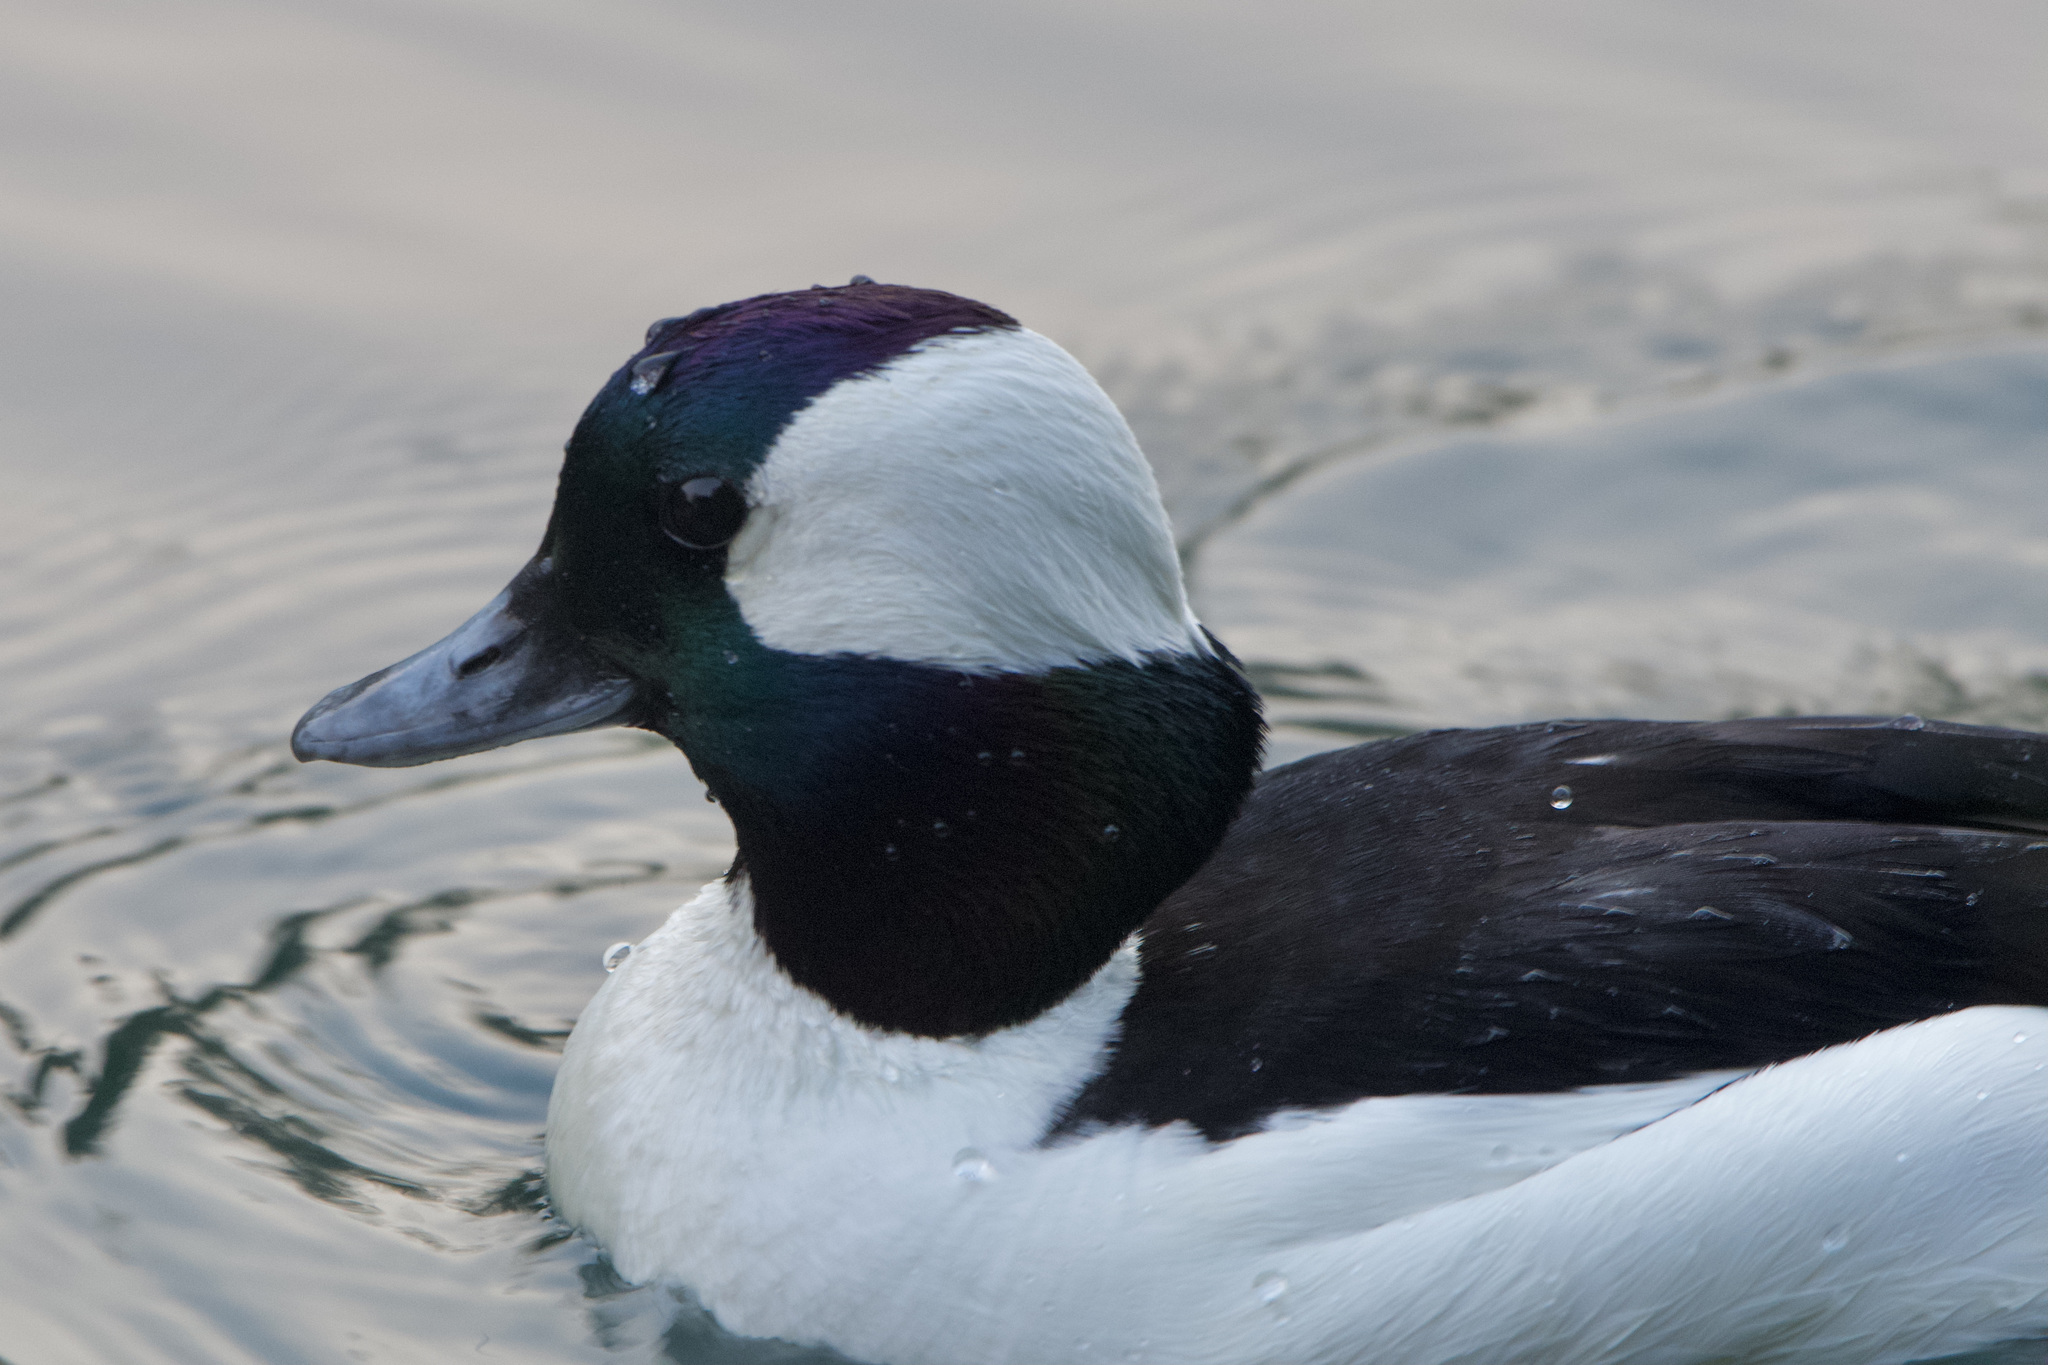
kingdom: Animalia
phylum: Chordata
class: Aves
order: Anseriformes
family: Anatidae
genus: Bucephala
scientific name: Bucephala albeola
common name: Bufflehead
